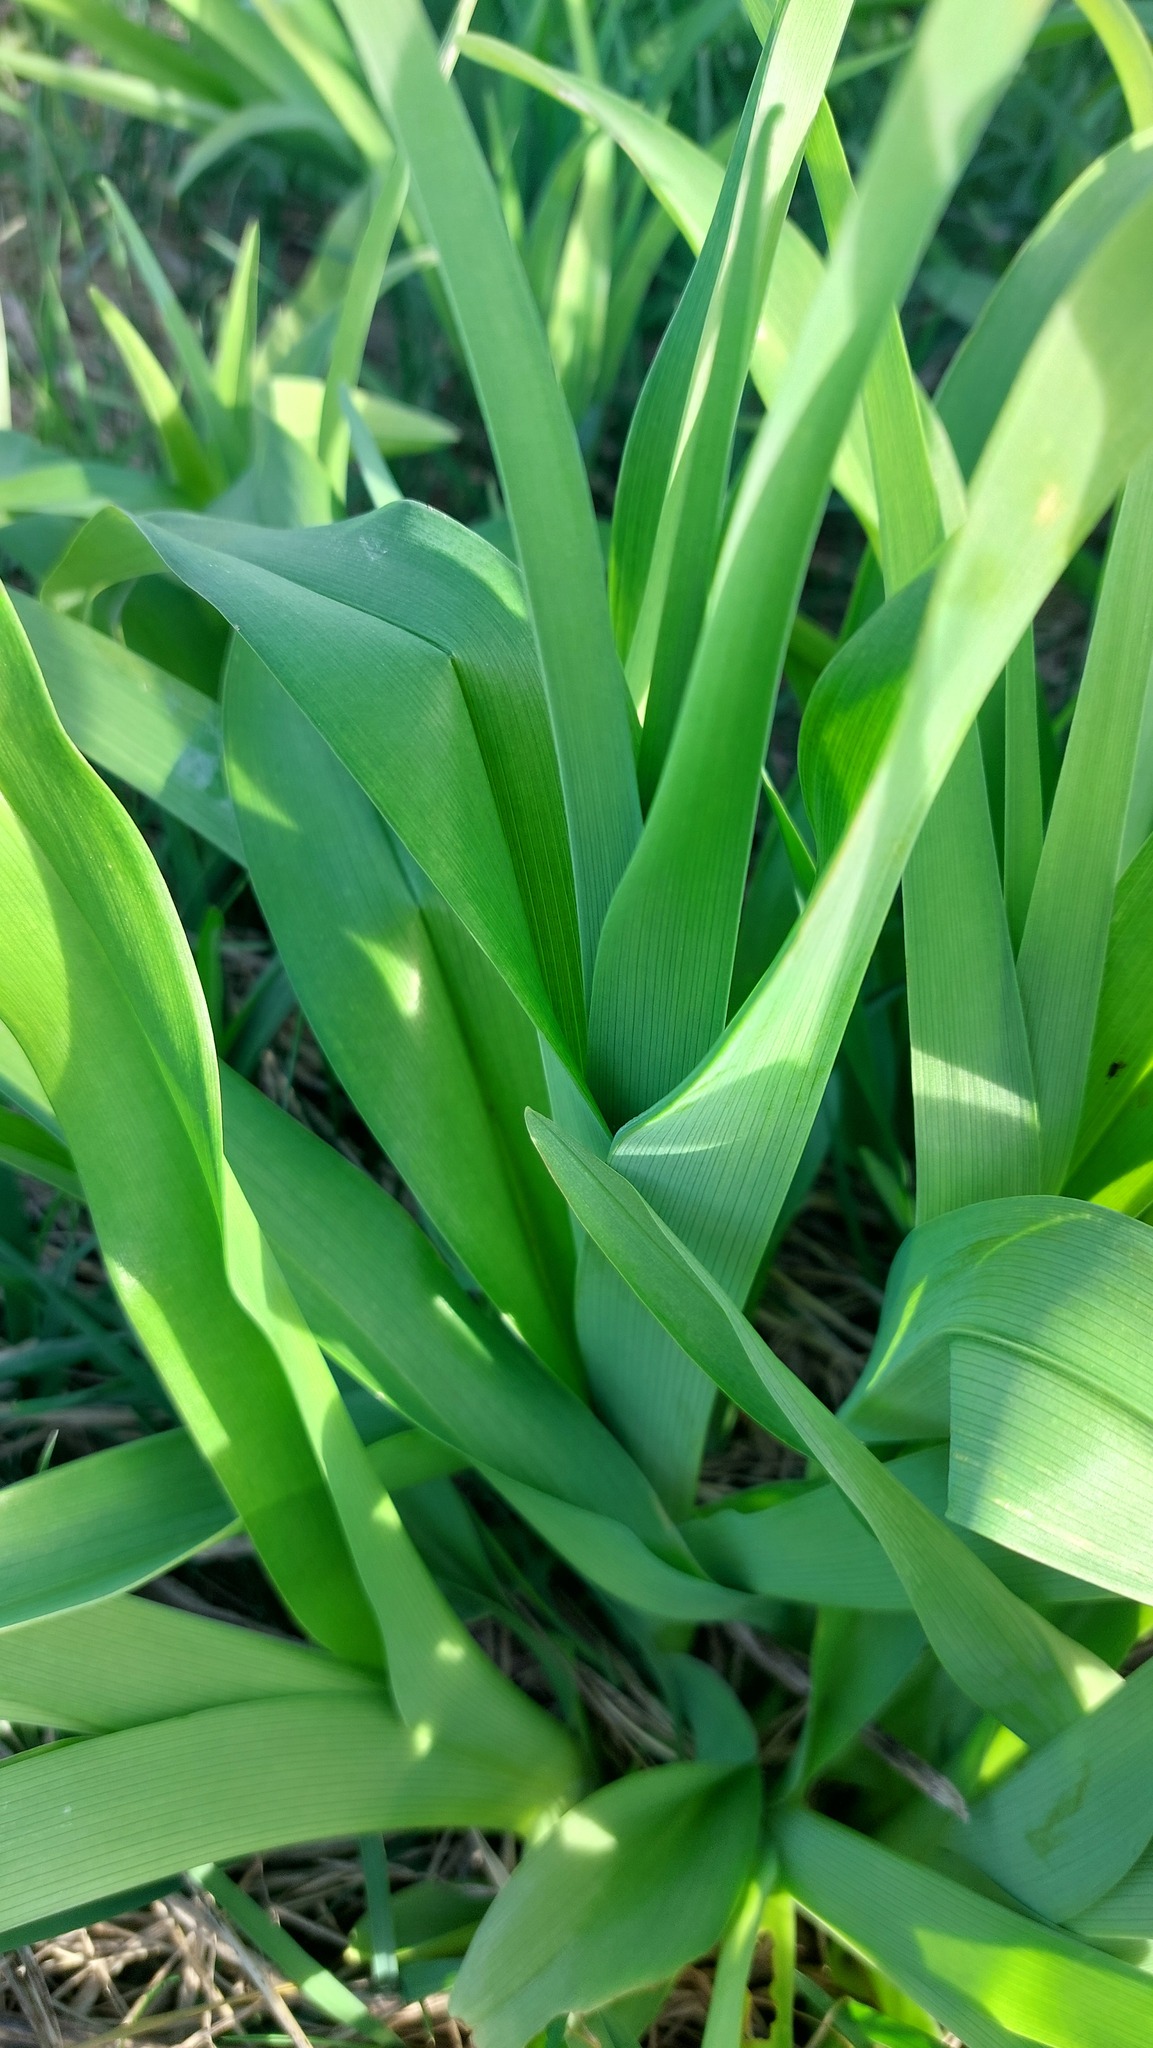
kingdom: Plantae
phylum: Tracheophyta
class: Liliopsida
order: Asparagales
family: Asphodelaceae
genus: Hemerocallis
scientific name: Hemerocallis fulva
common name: Orange day-lily
